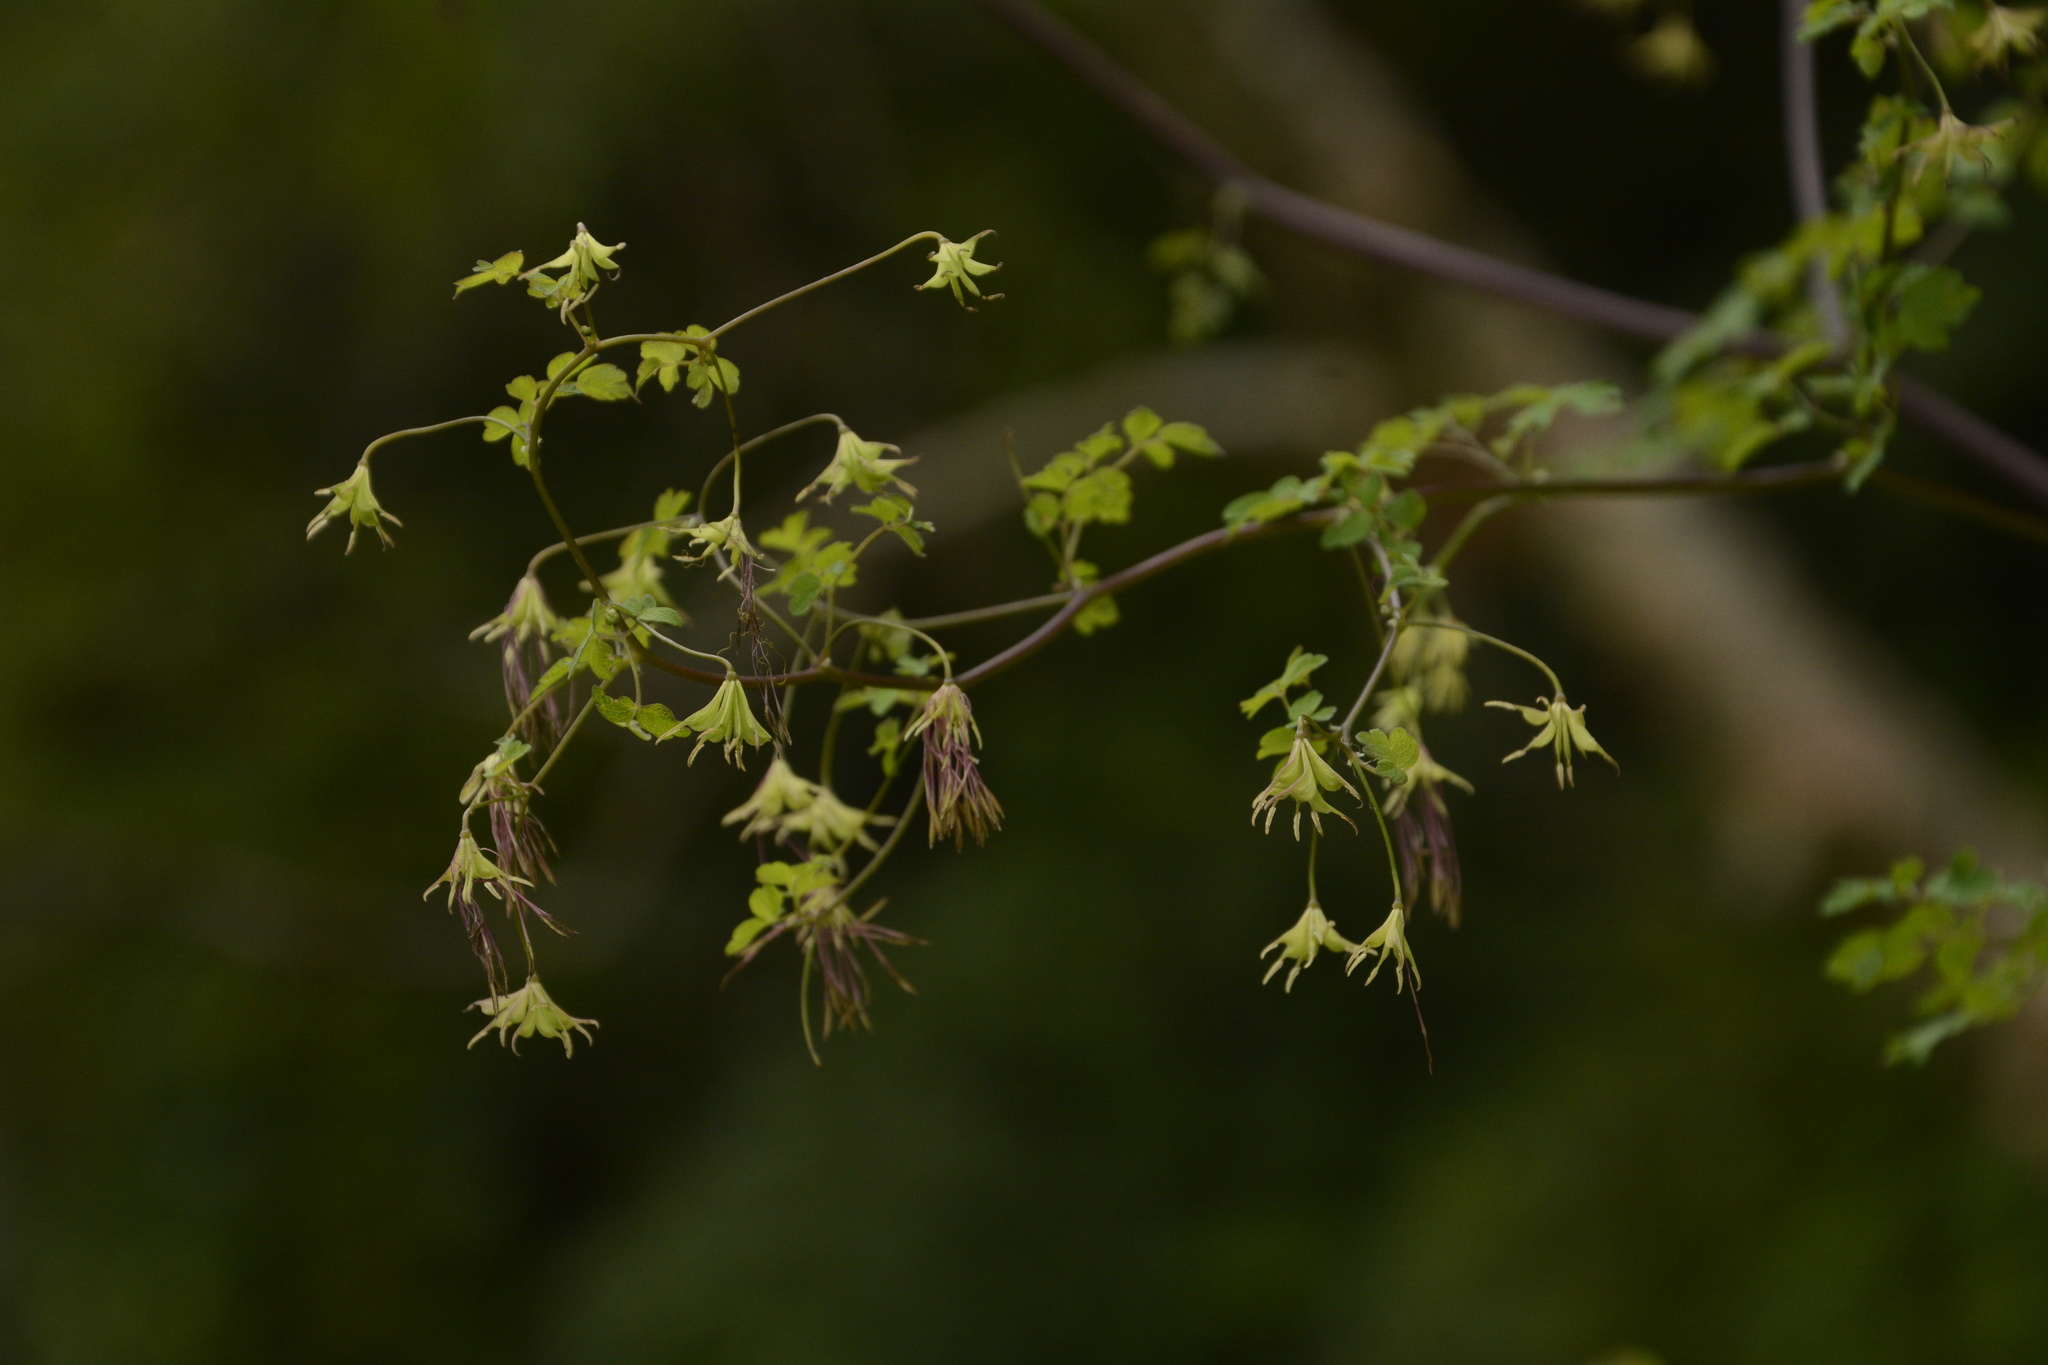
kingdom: Plantae
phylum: Tracheophyta
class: Magnoliopsida
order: Ranunculales
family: Ranunculaceae
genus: Thalictrum
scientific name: Thalictrum cultratum
